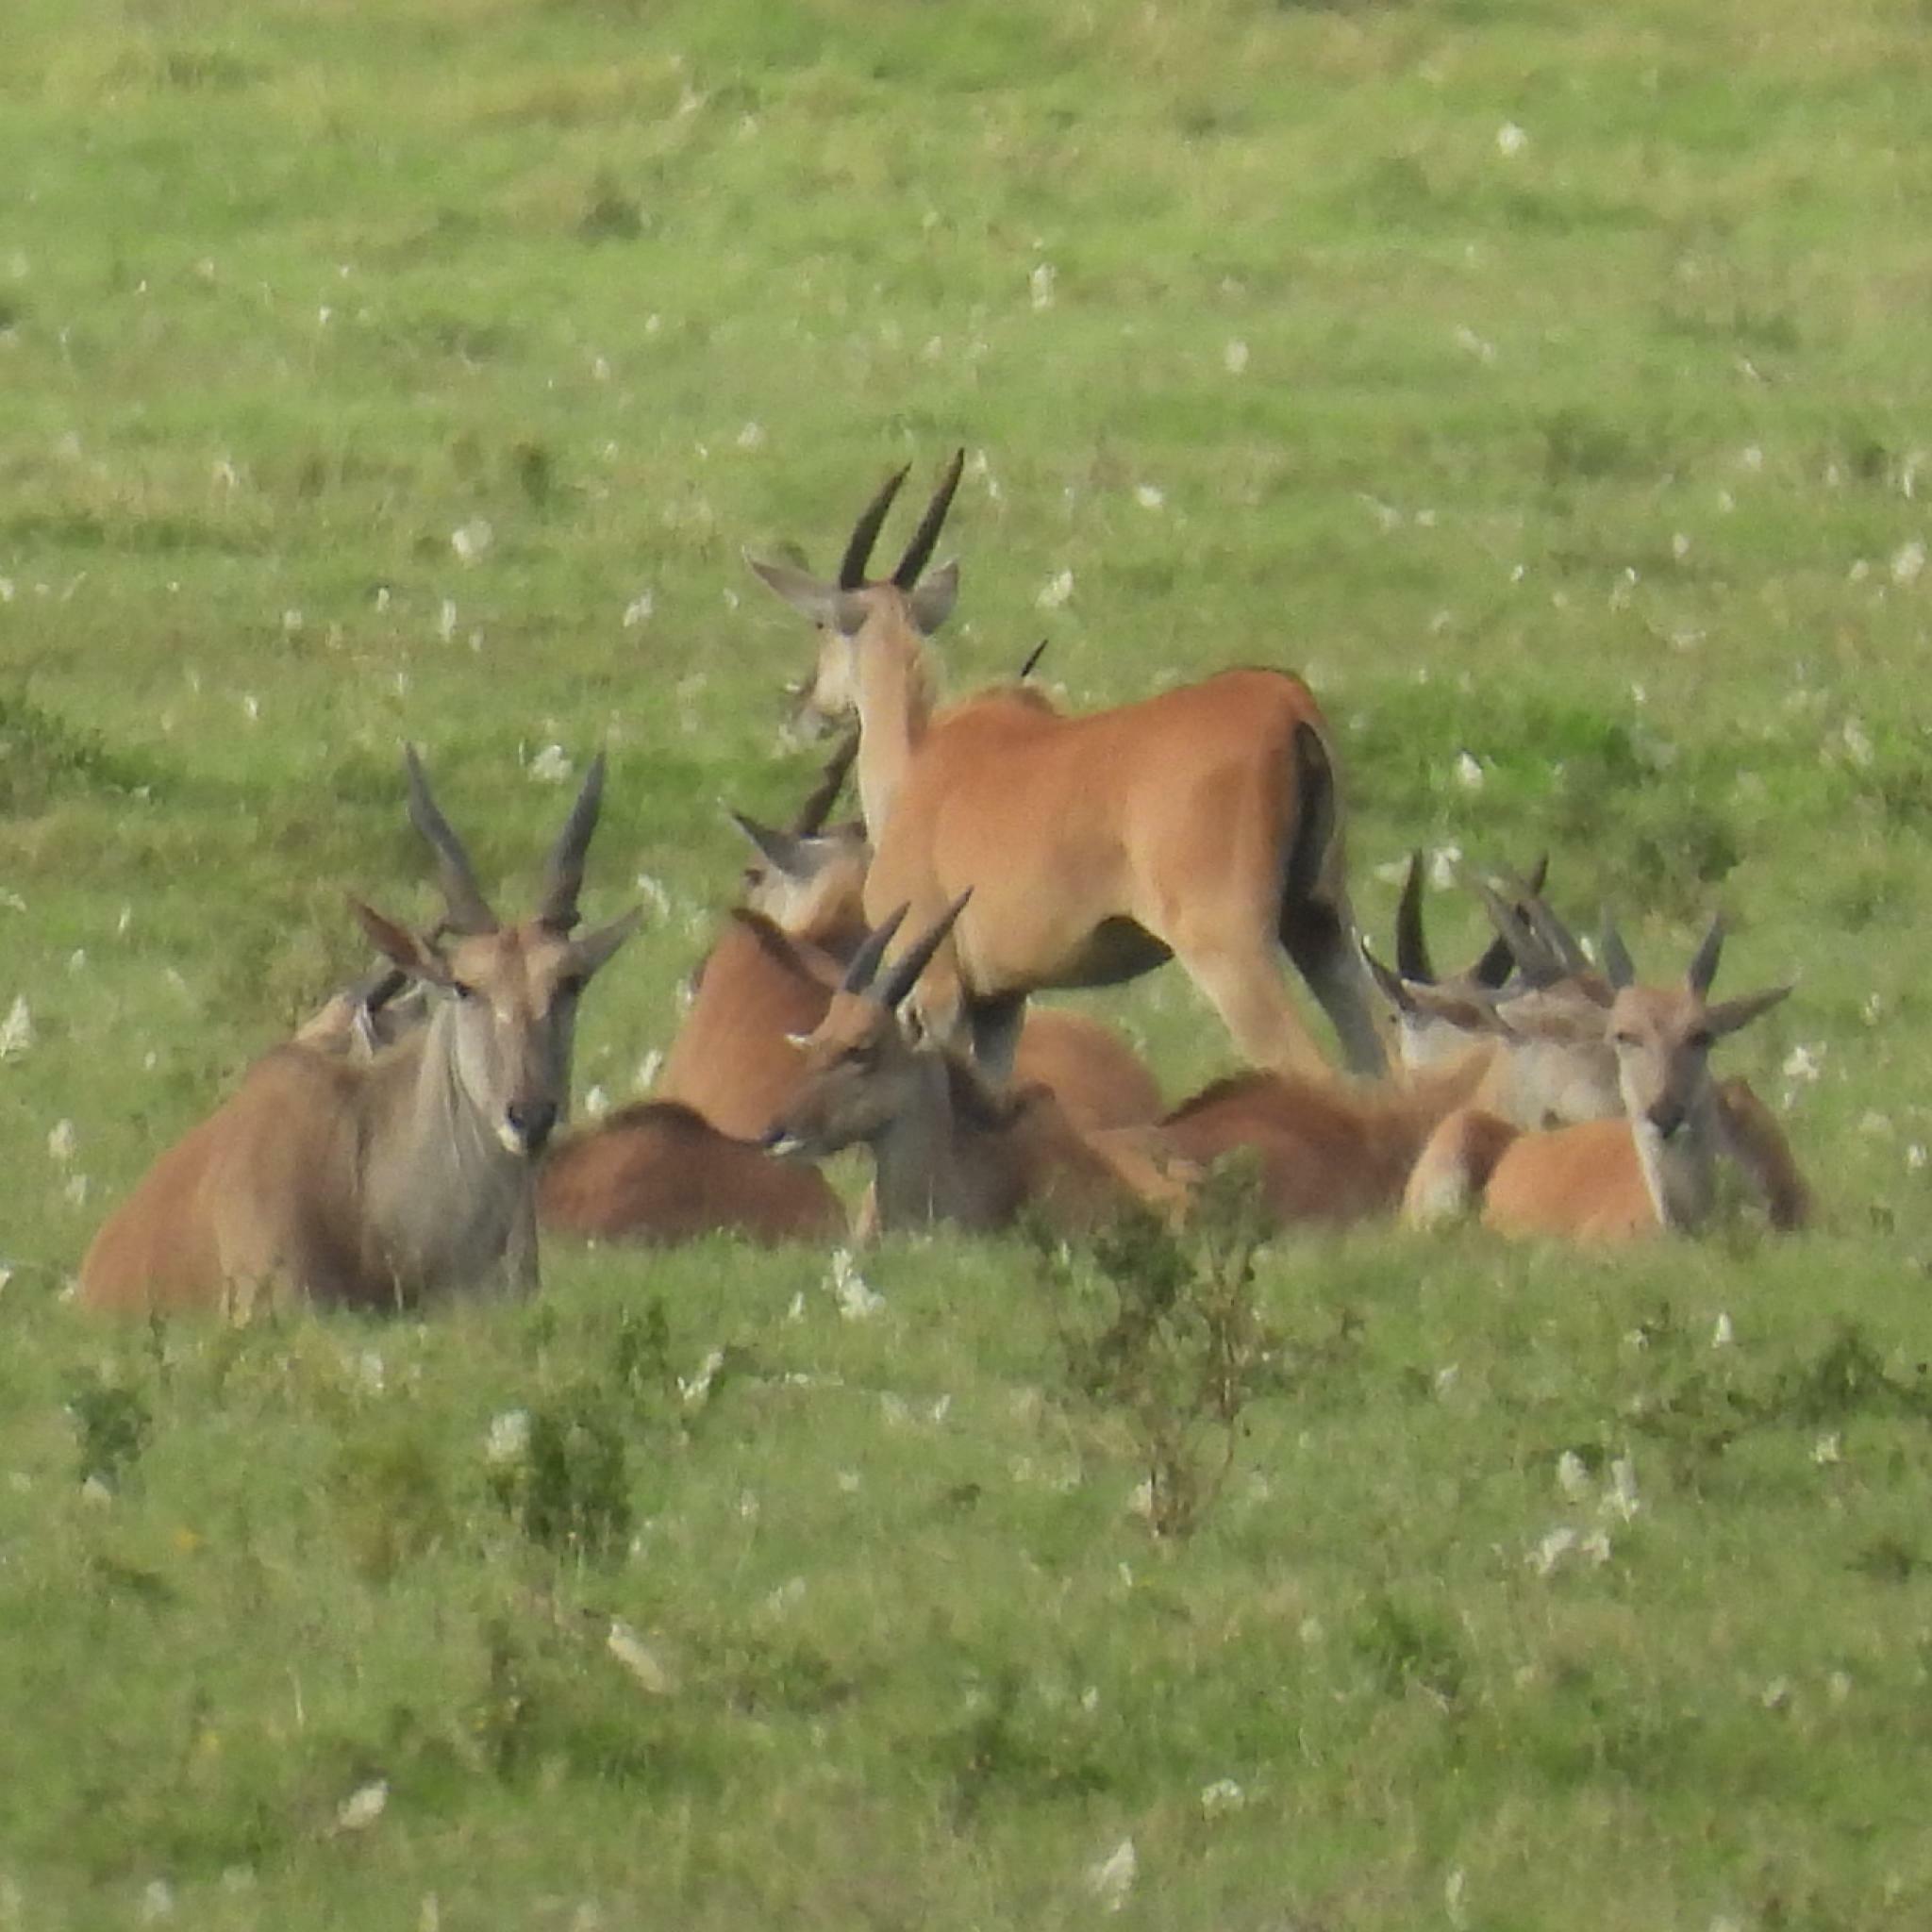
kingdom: Animalia
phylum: Chordata
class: Mammalia
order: Artiodactyla
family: Bovidae
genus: Taurotragus
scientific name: Taurotragus oryx
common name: Common eland
